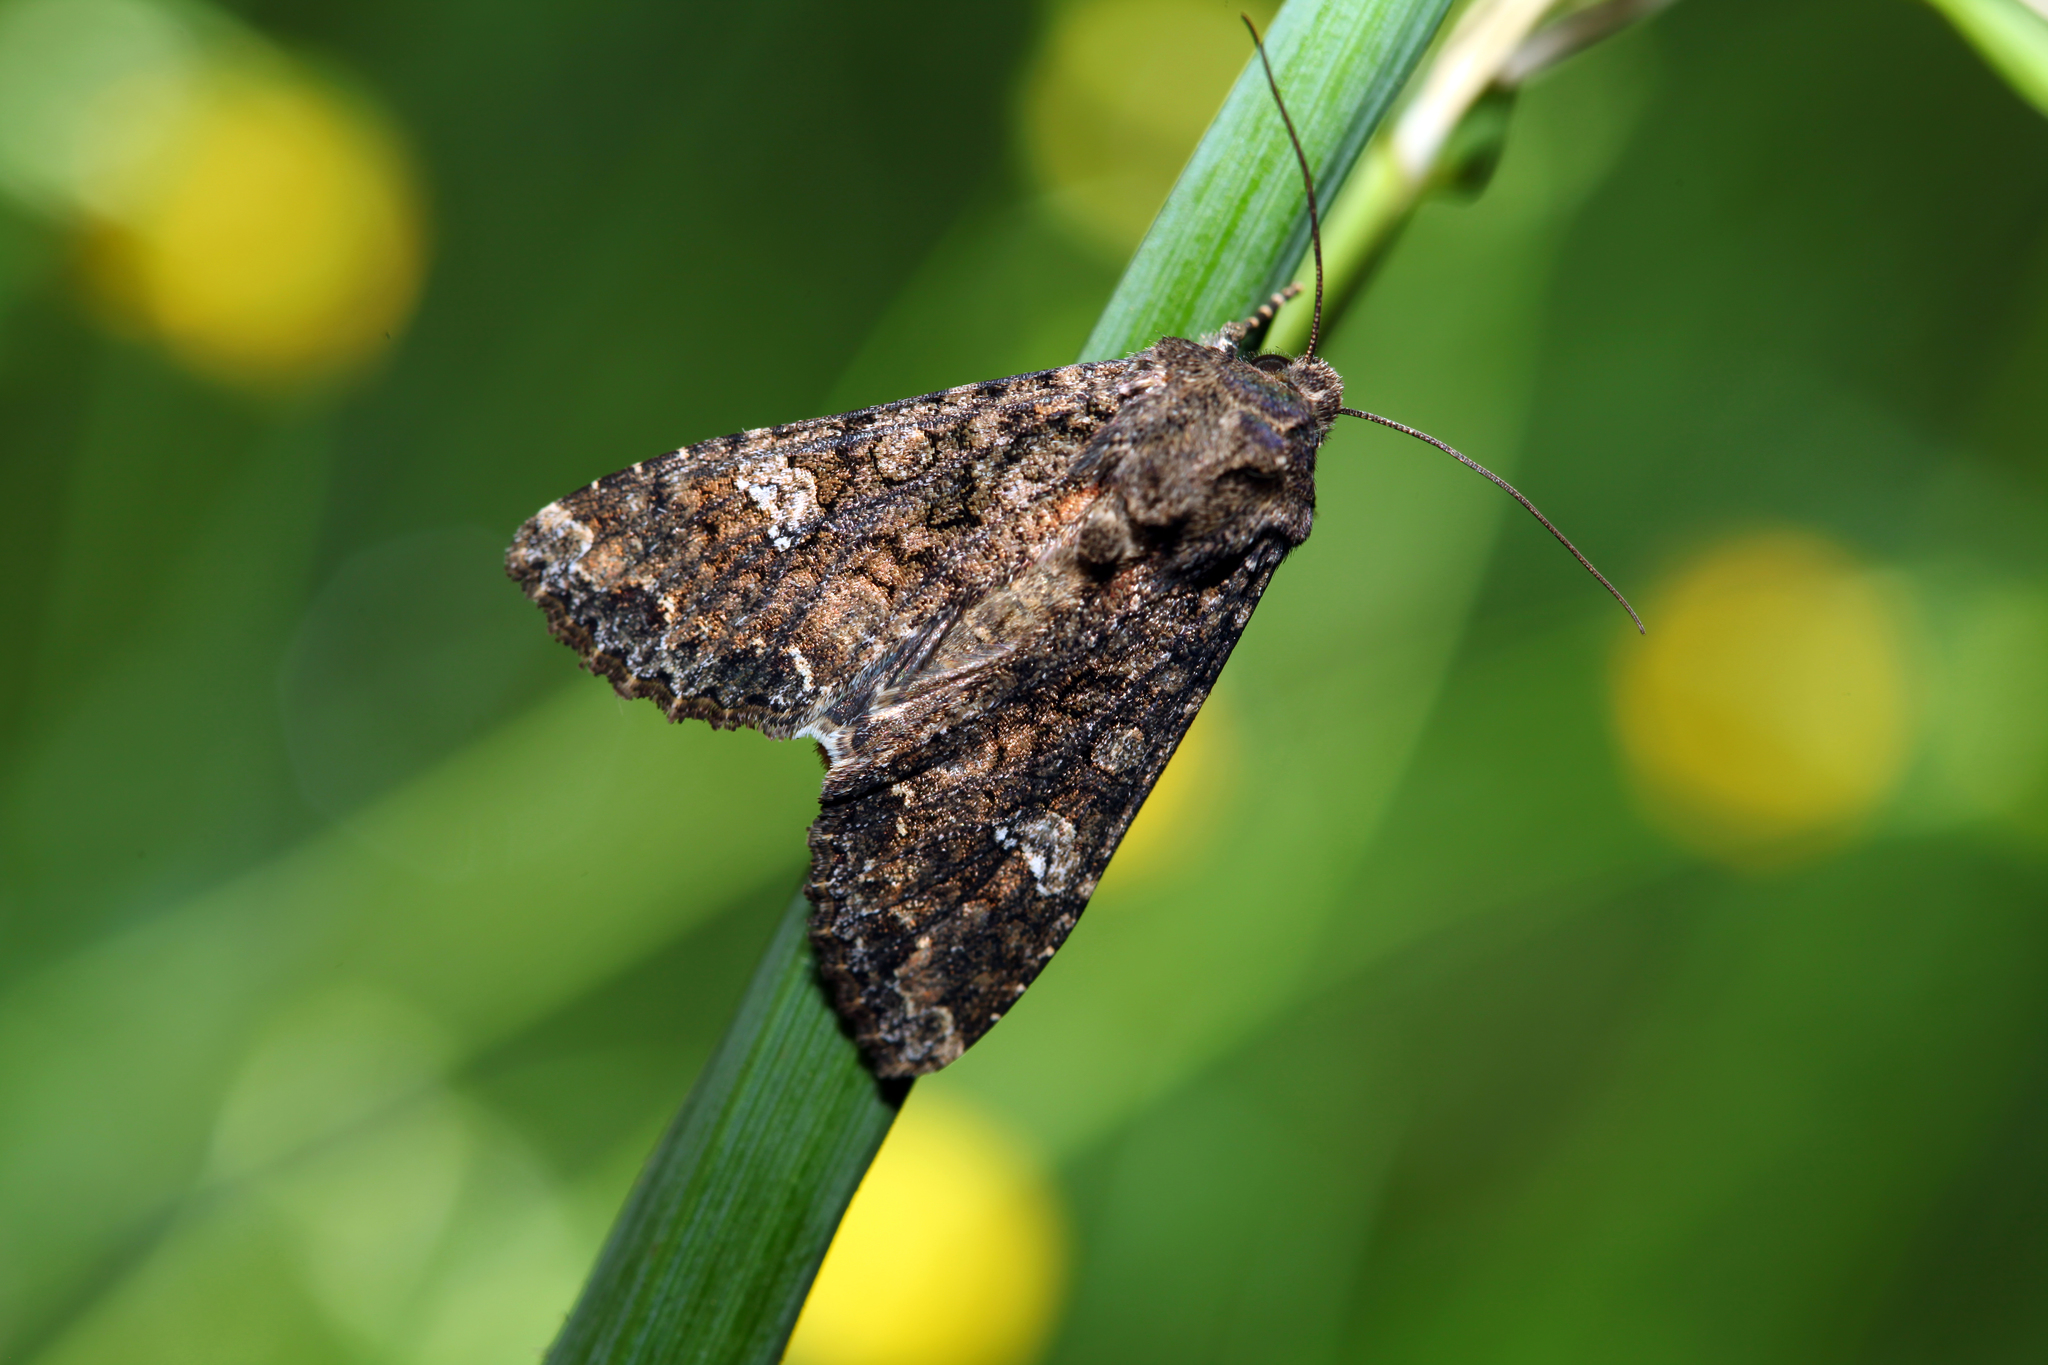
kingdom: Animalia
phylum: Arthropoda
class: Insecta
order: Lepidoptera
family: Noctuidae
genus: Mamestra
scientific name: Mamestra brassicae
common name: Cabbage moth
